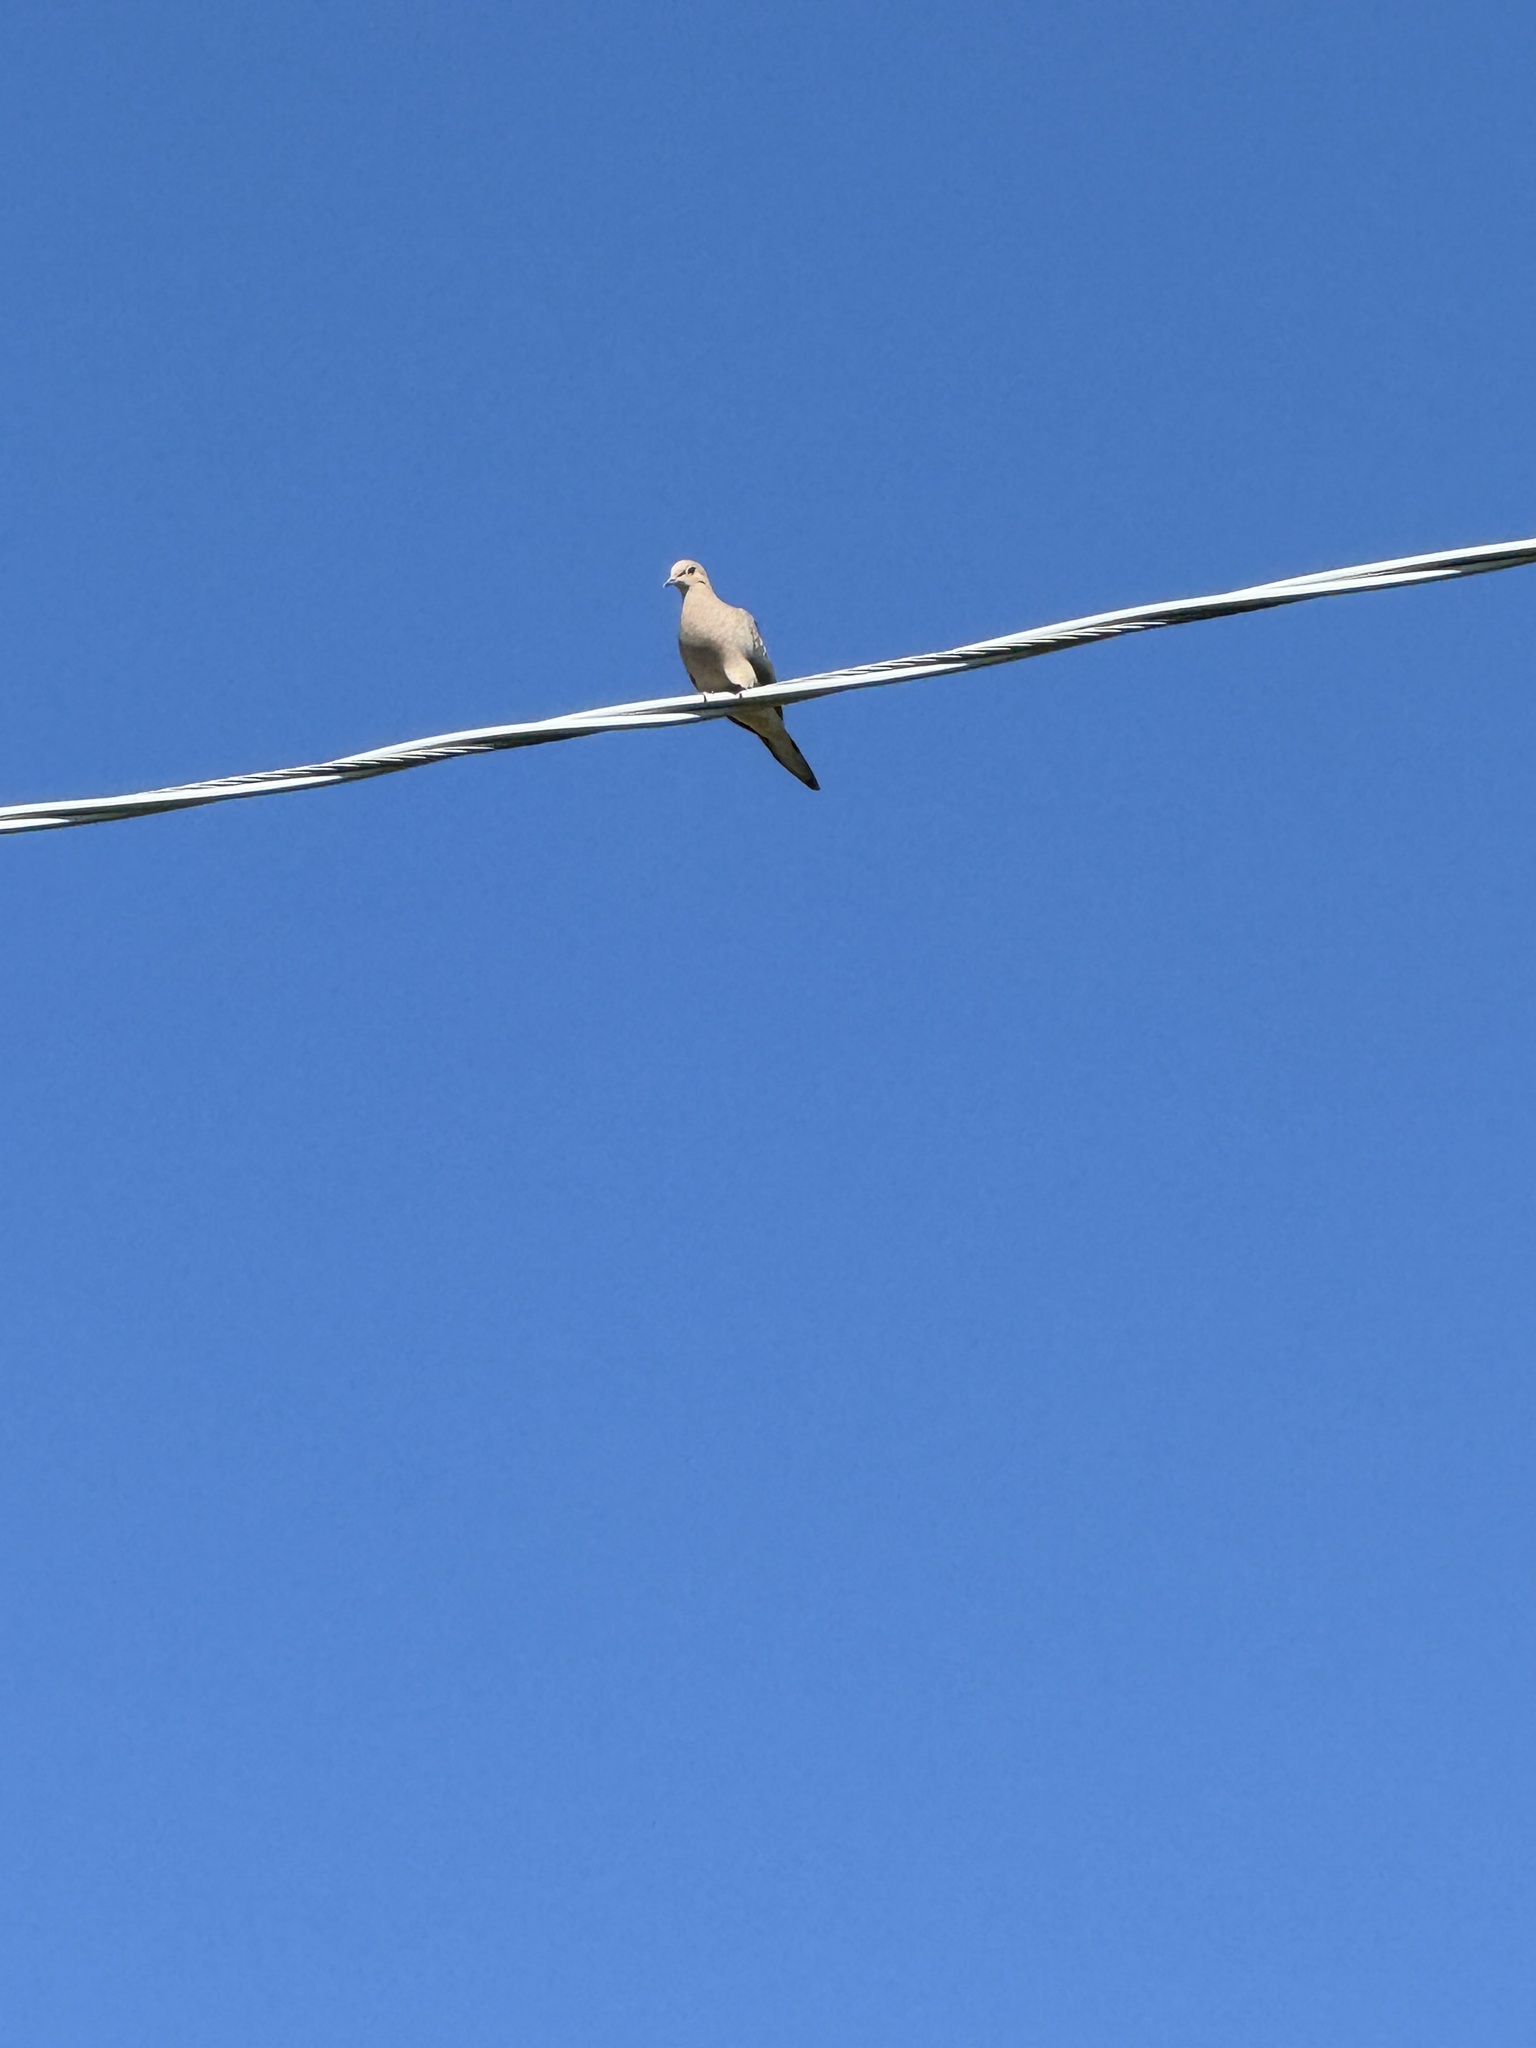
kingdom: Animalia
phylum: Chordata
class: Aves
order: Columbiformes
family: Columbidae
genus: Zenaida
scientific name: Zenaida macroura
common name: Mourning dove
